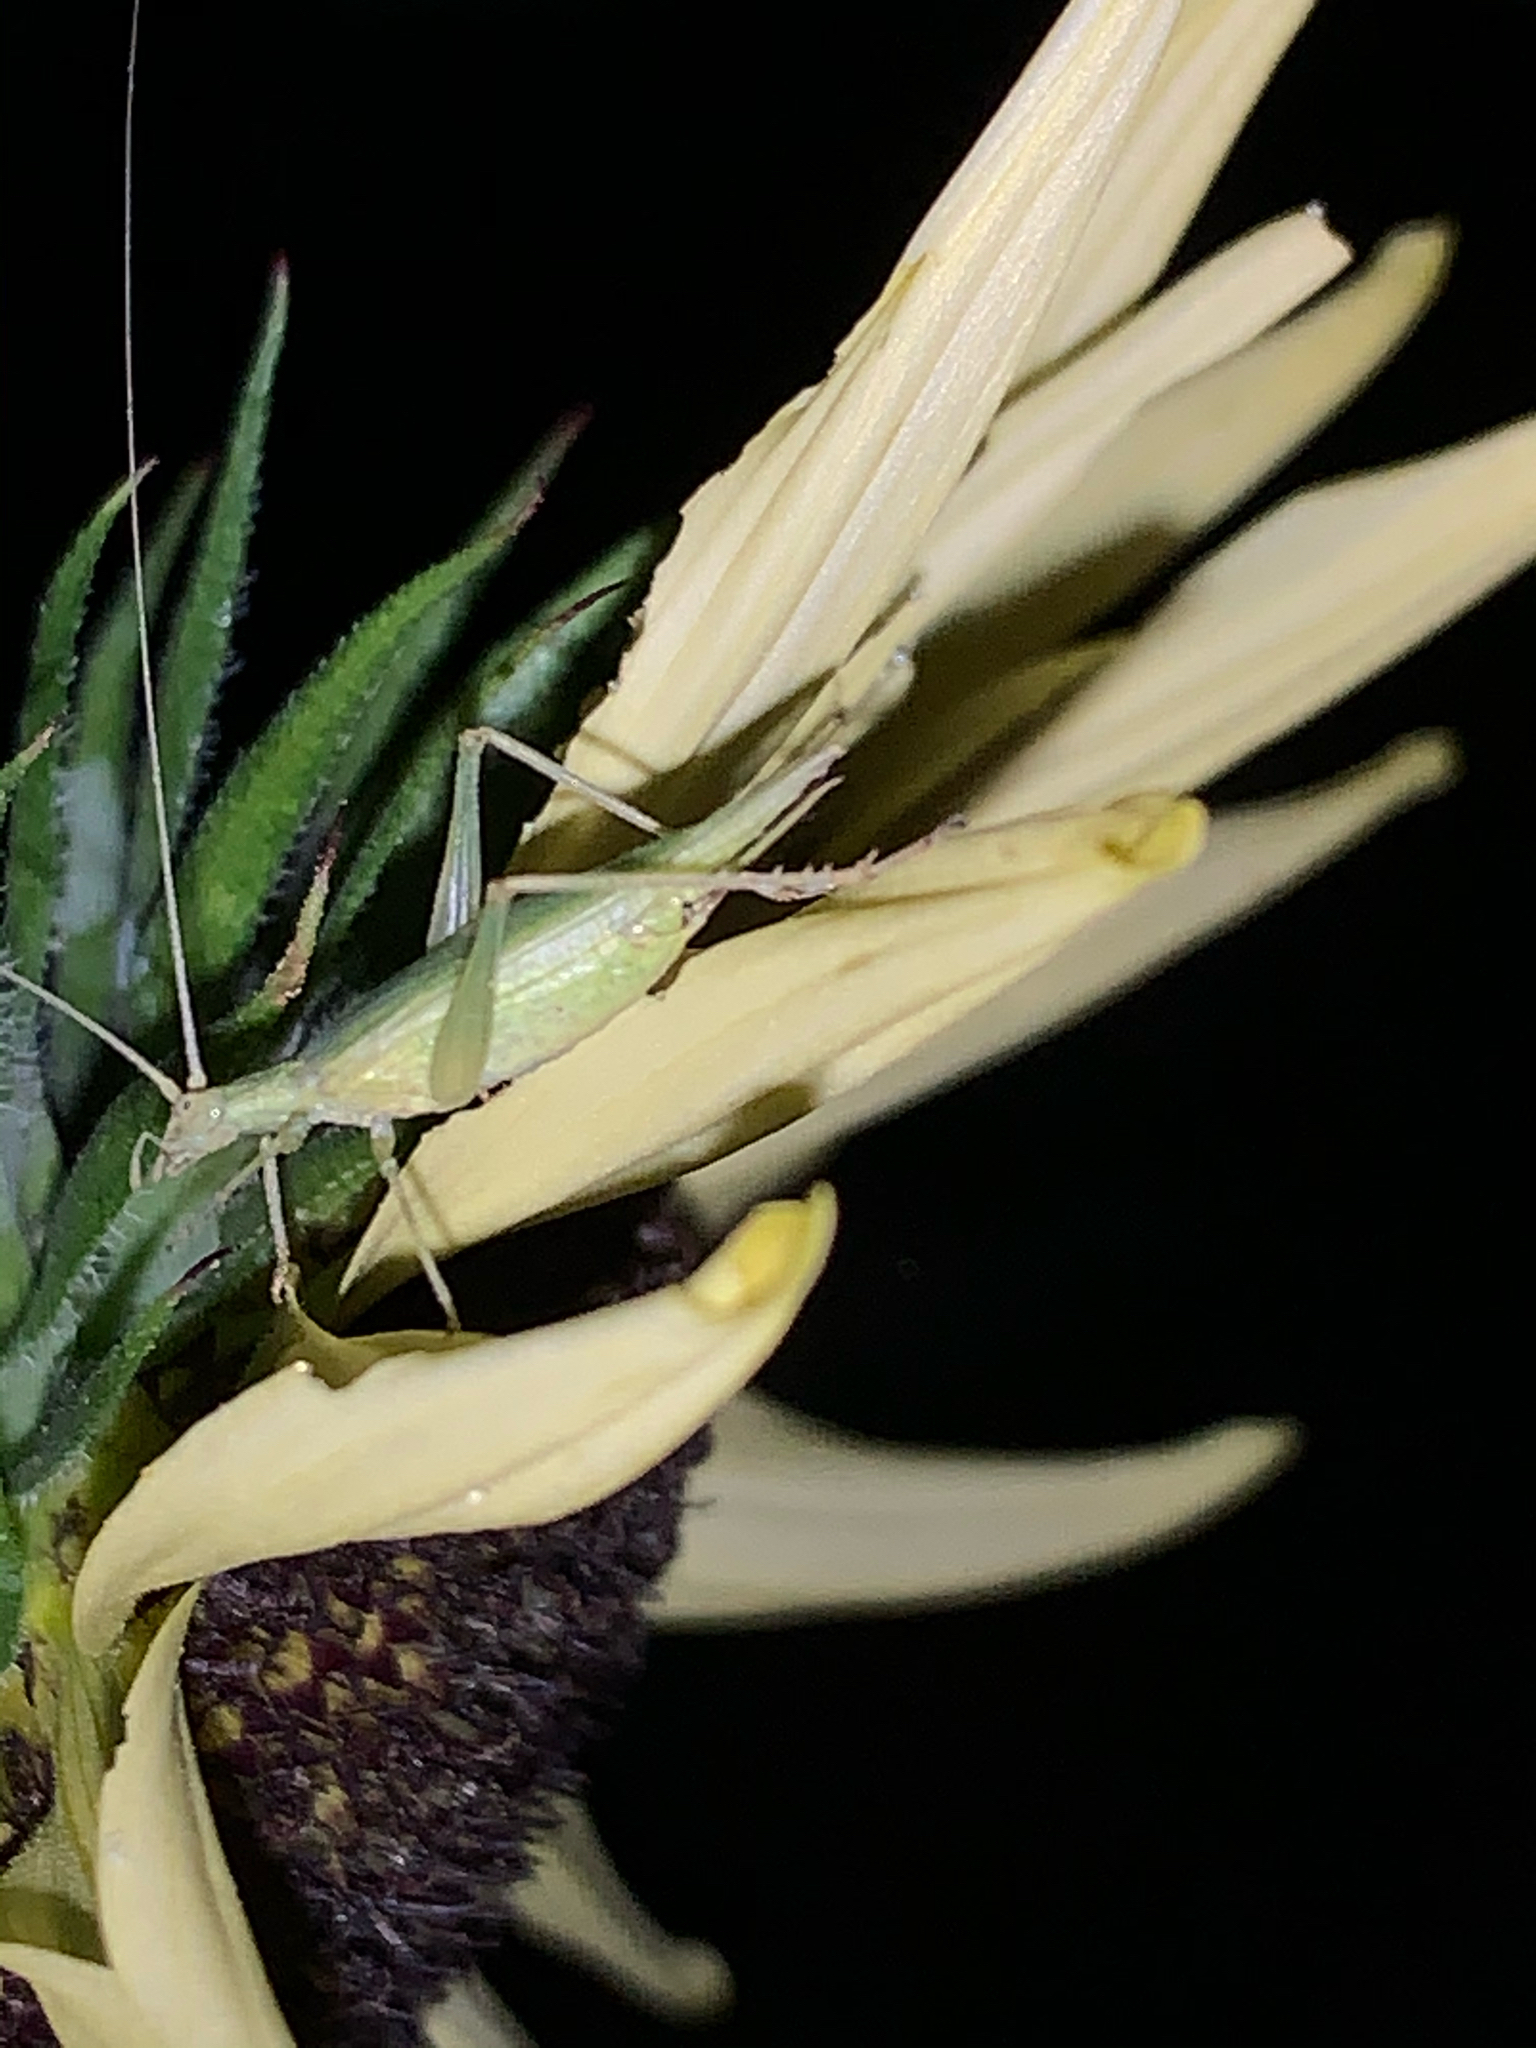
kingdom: Animalia
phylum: Arthropoda
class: Insecta
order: Orthoptera
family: Gryllidae
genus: Oecanthus
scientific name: Oecanthus
